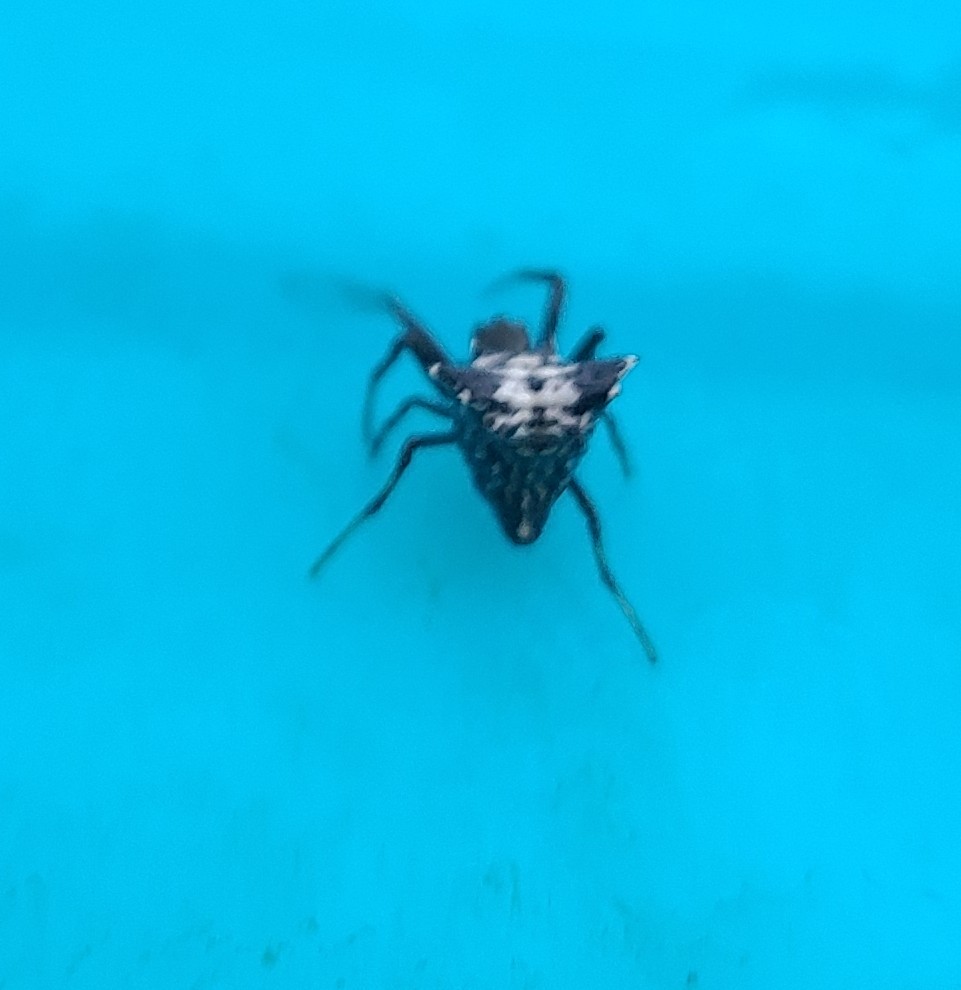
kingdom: Animalia
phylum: Arthropoda
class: Arachnida
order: Araneae
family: Araneidae
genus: Micrathena
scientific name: Micrathena gracilis
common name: Orb weavers
